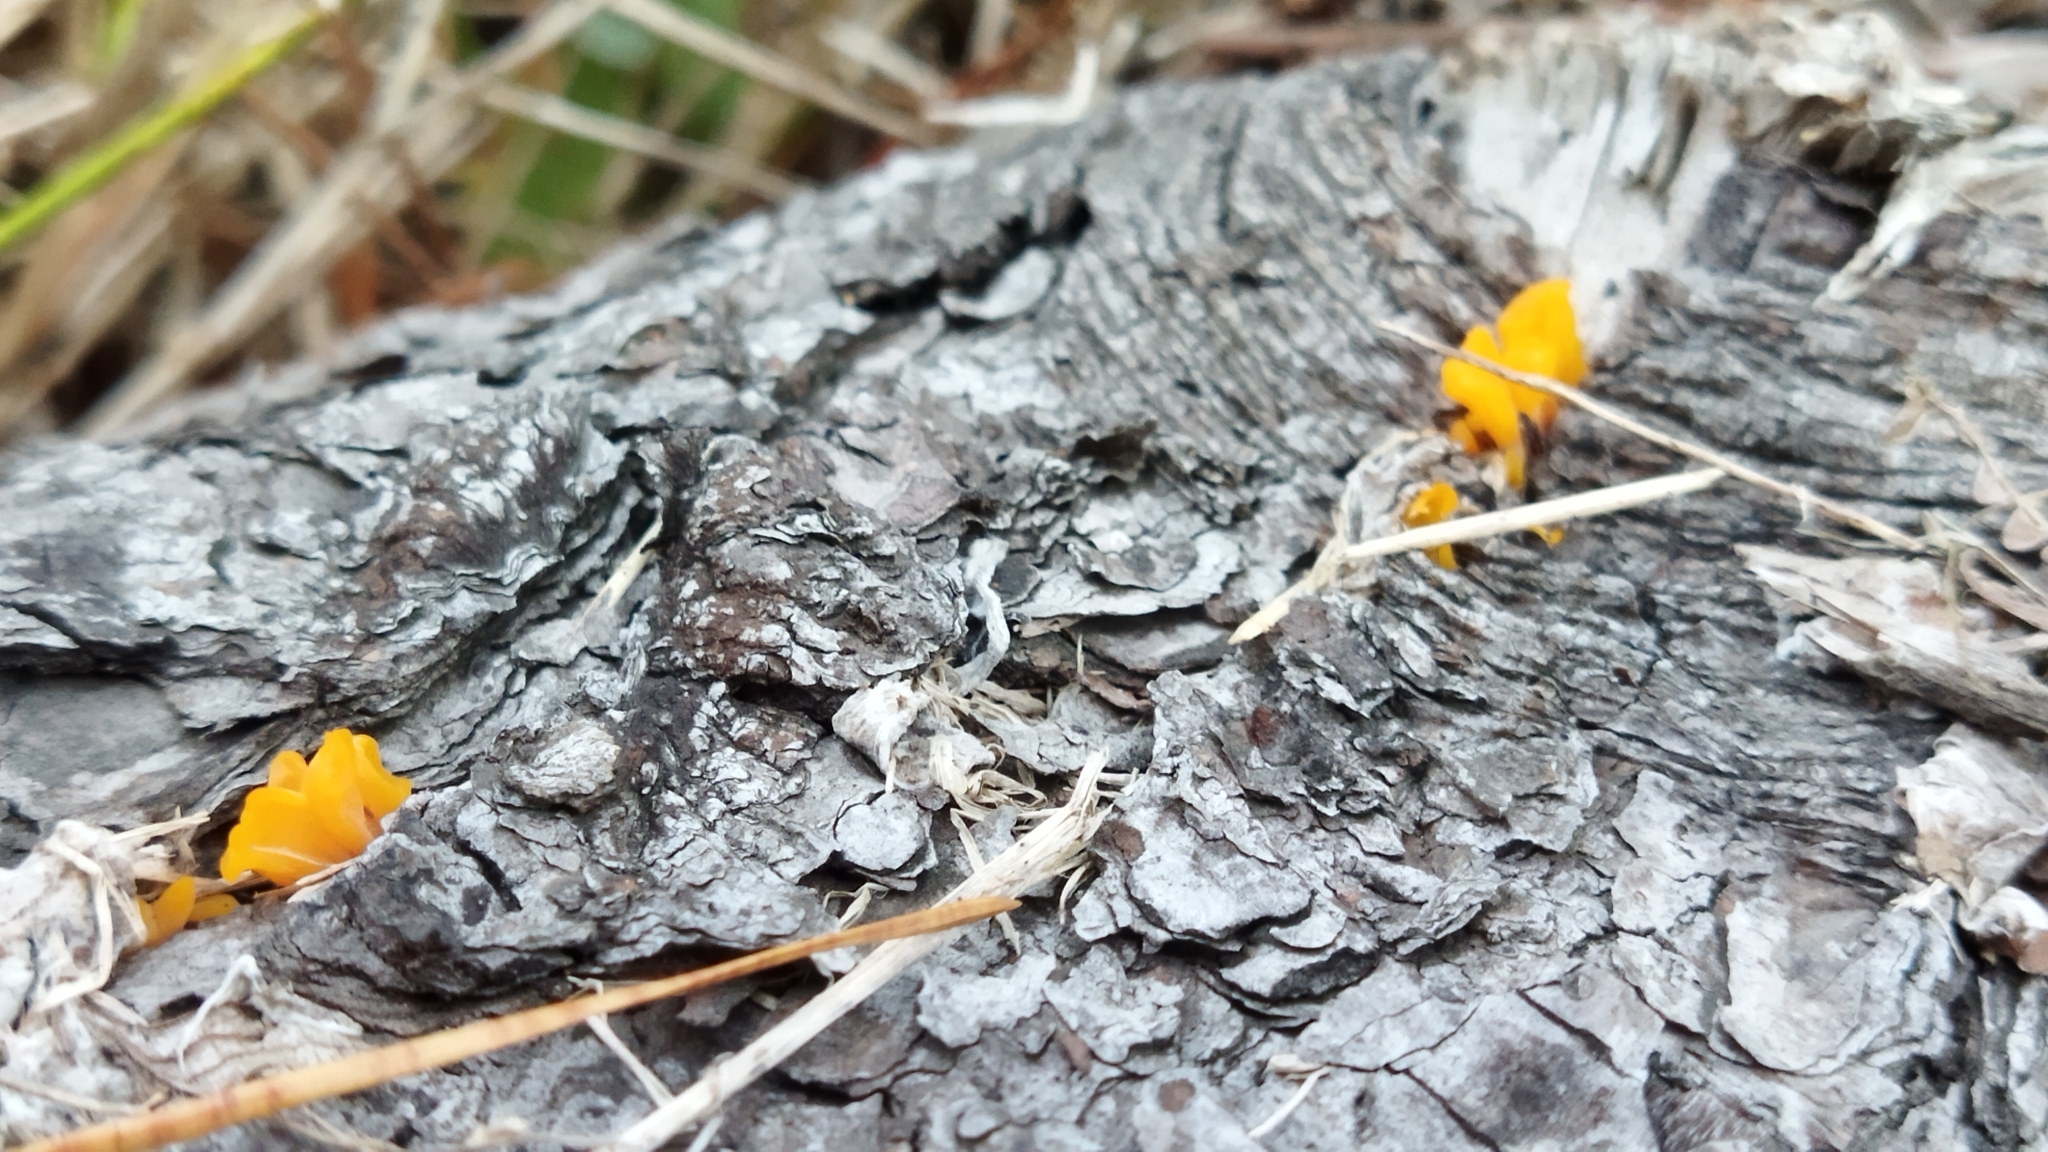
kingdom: Fungi
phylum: Basidiomycota
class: Dacrymycetes
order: Dacrymycetales
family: Dacrymycetaceae
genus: Dacrymyces
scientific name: Dacrymyces spathularius
